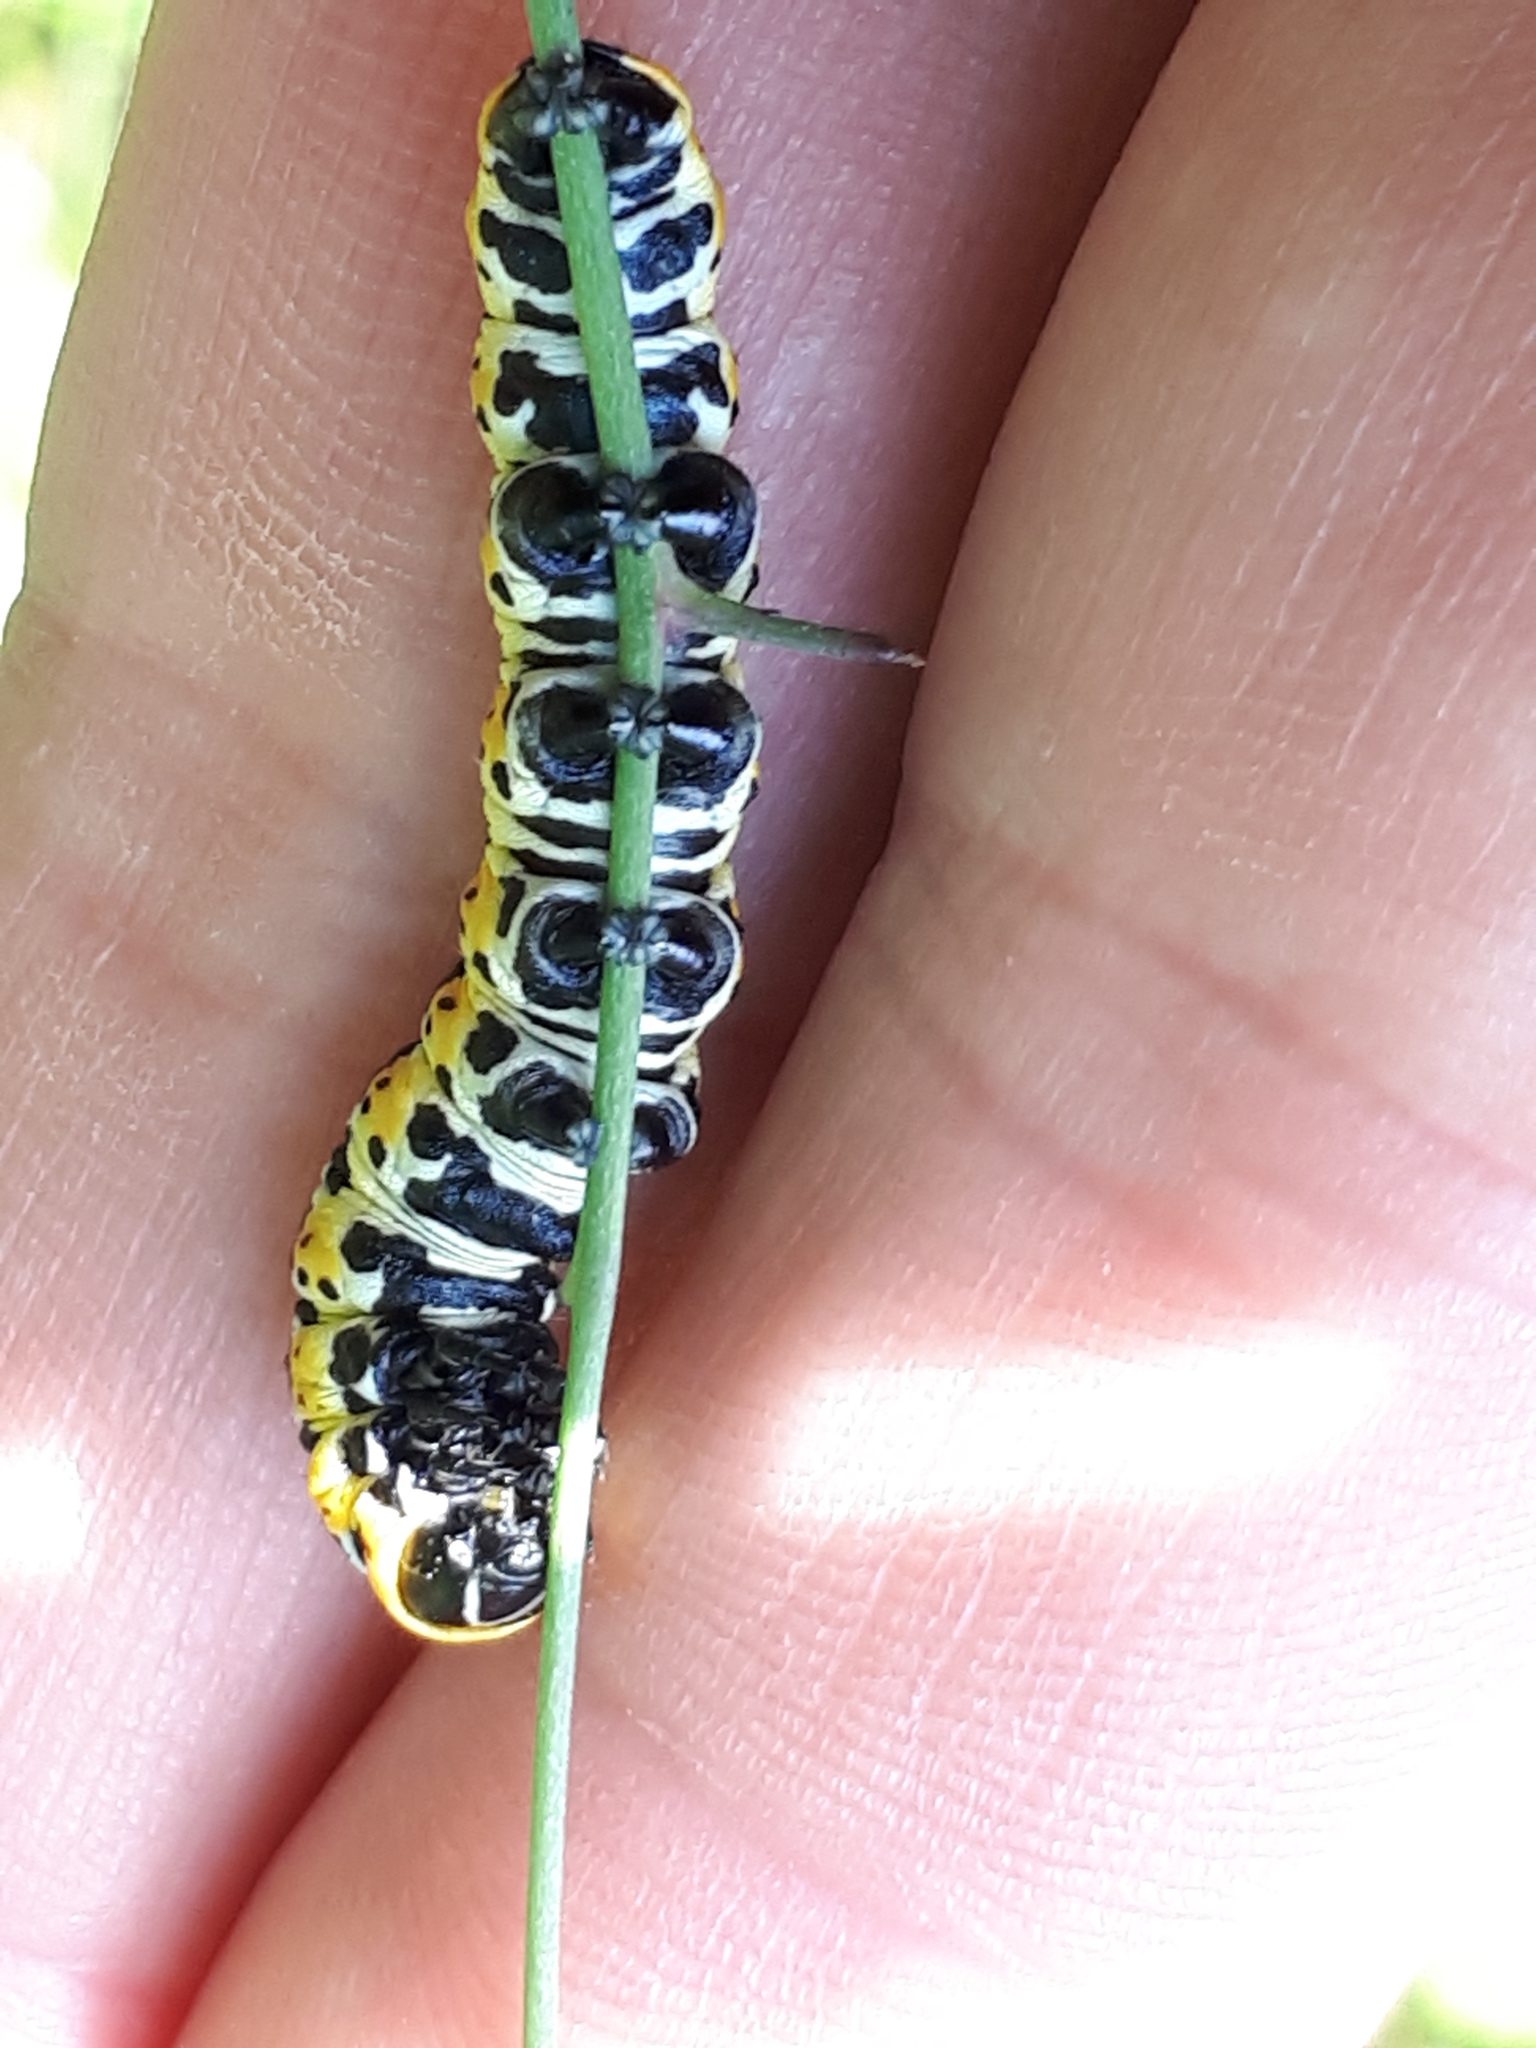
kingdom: Animalia
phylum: Arthropoda
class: Insecta
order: Lepidoptera
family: Noctuidae
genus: Cucullia
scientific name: Cucullia lactucae
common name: Lettuce shark
